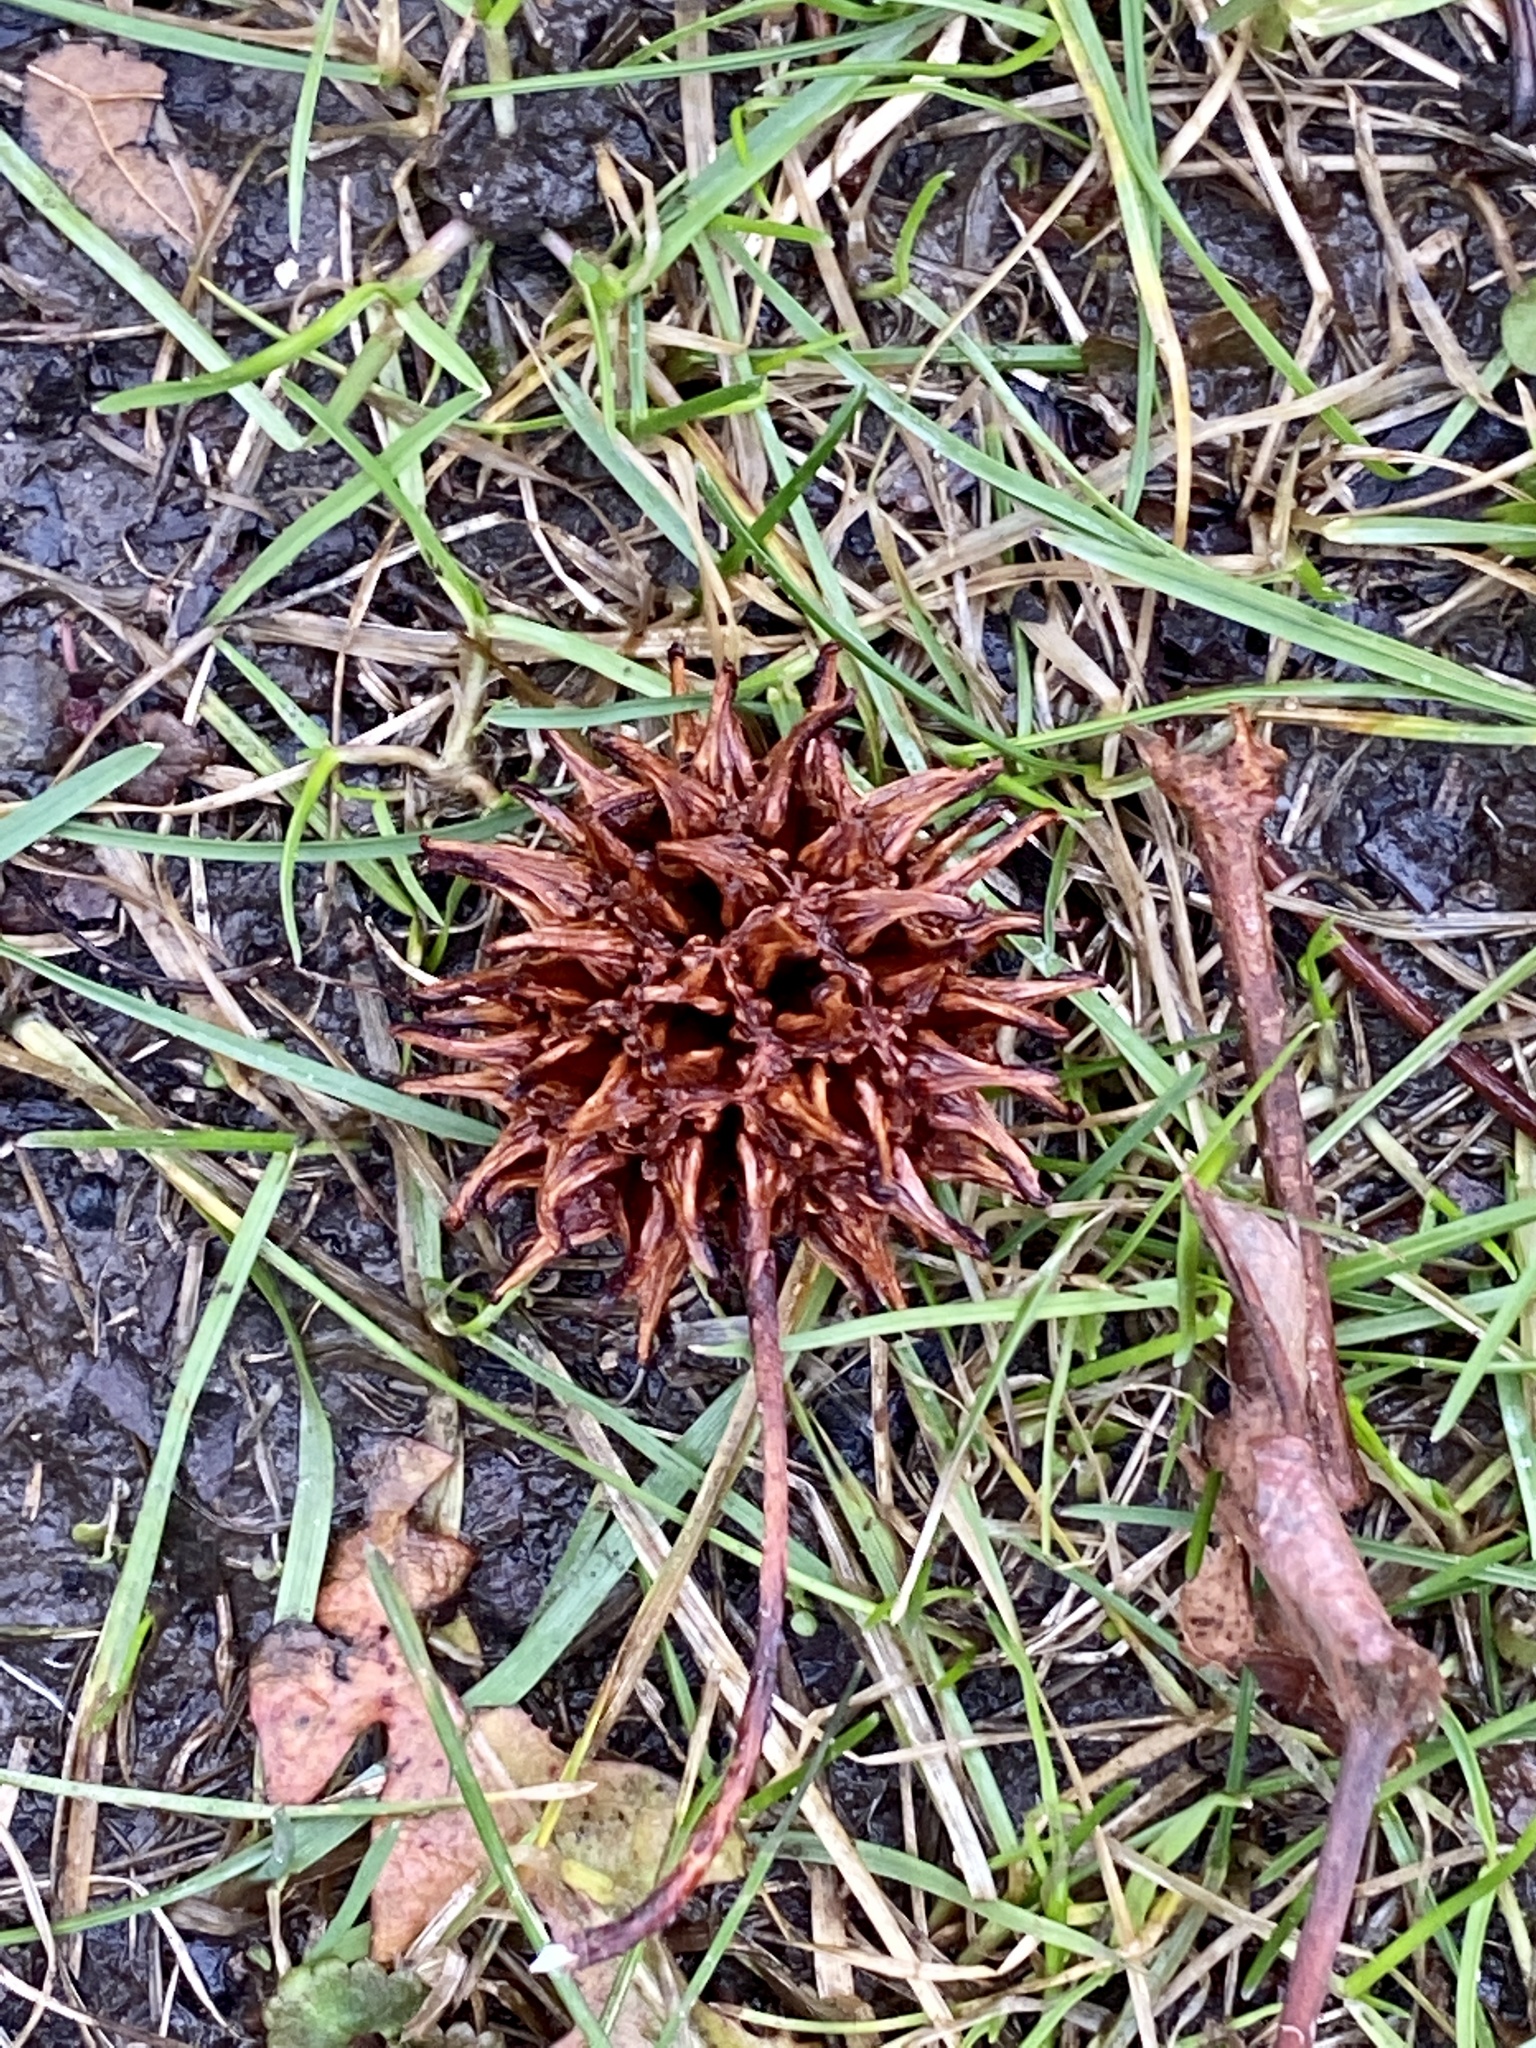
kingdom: Plantae
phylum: Tracheophyta
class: Magnoliopsida
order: Saxifragales
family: Altingiaceae
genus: Liquidambar
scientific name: Liquidambar styraciflua
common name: Sweet gum
